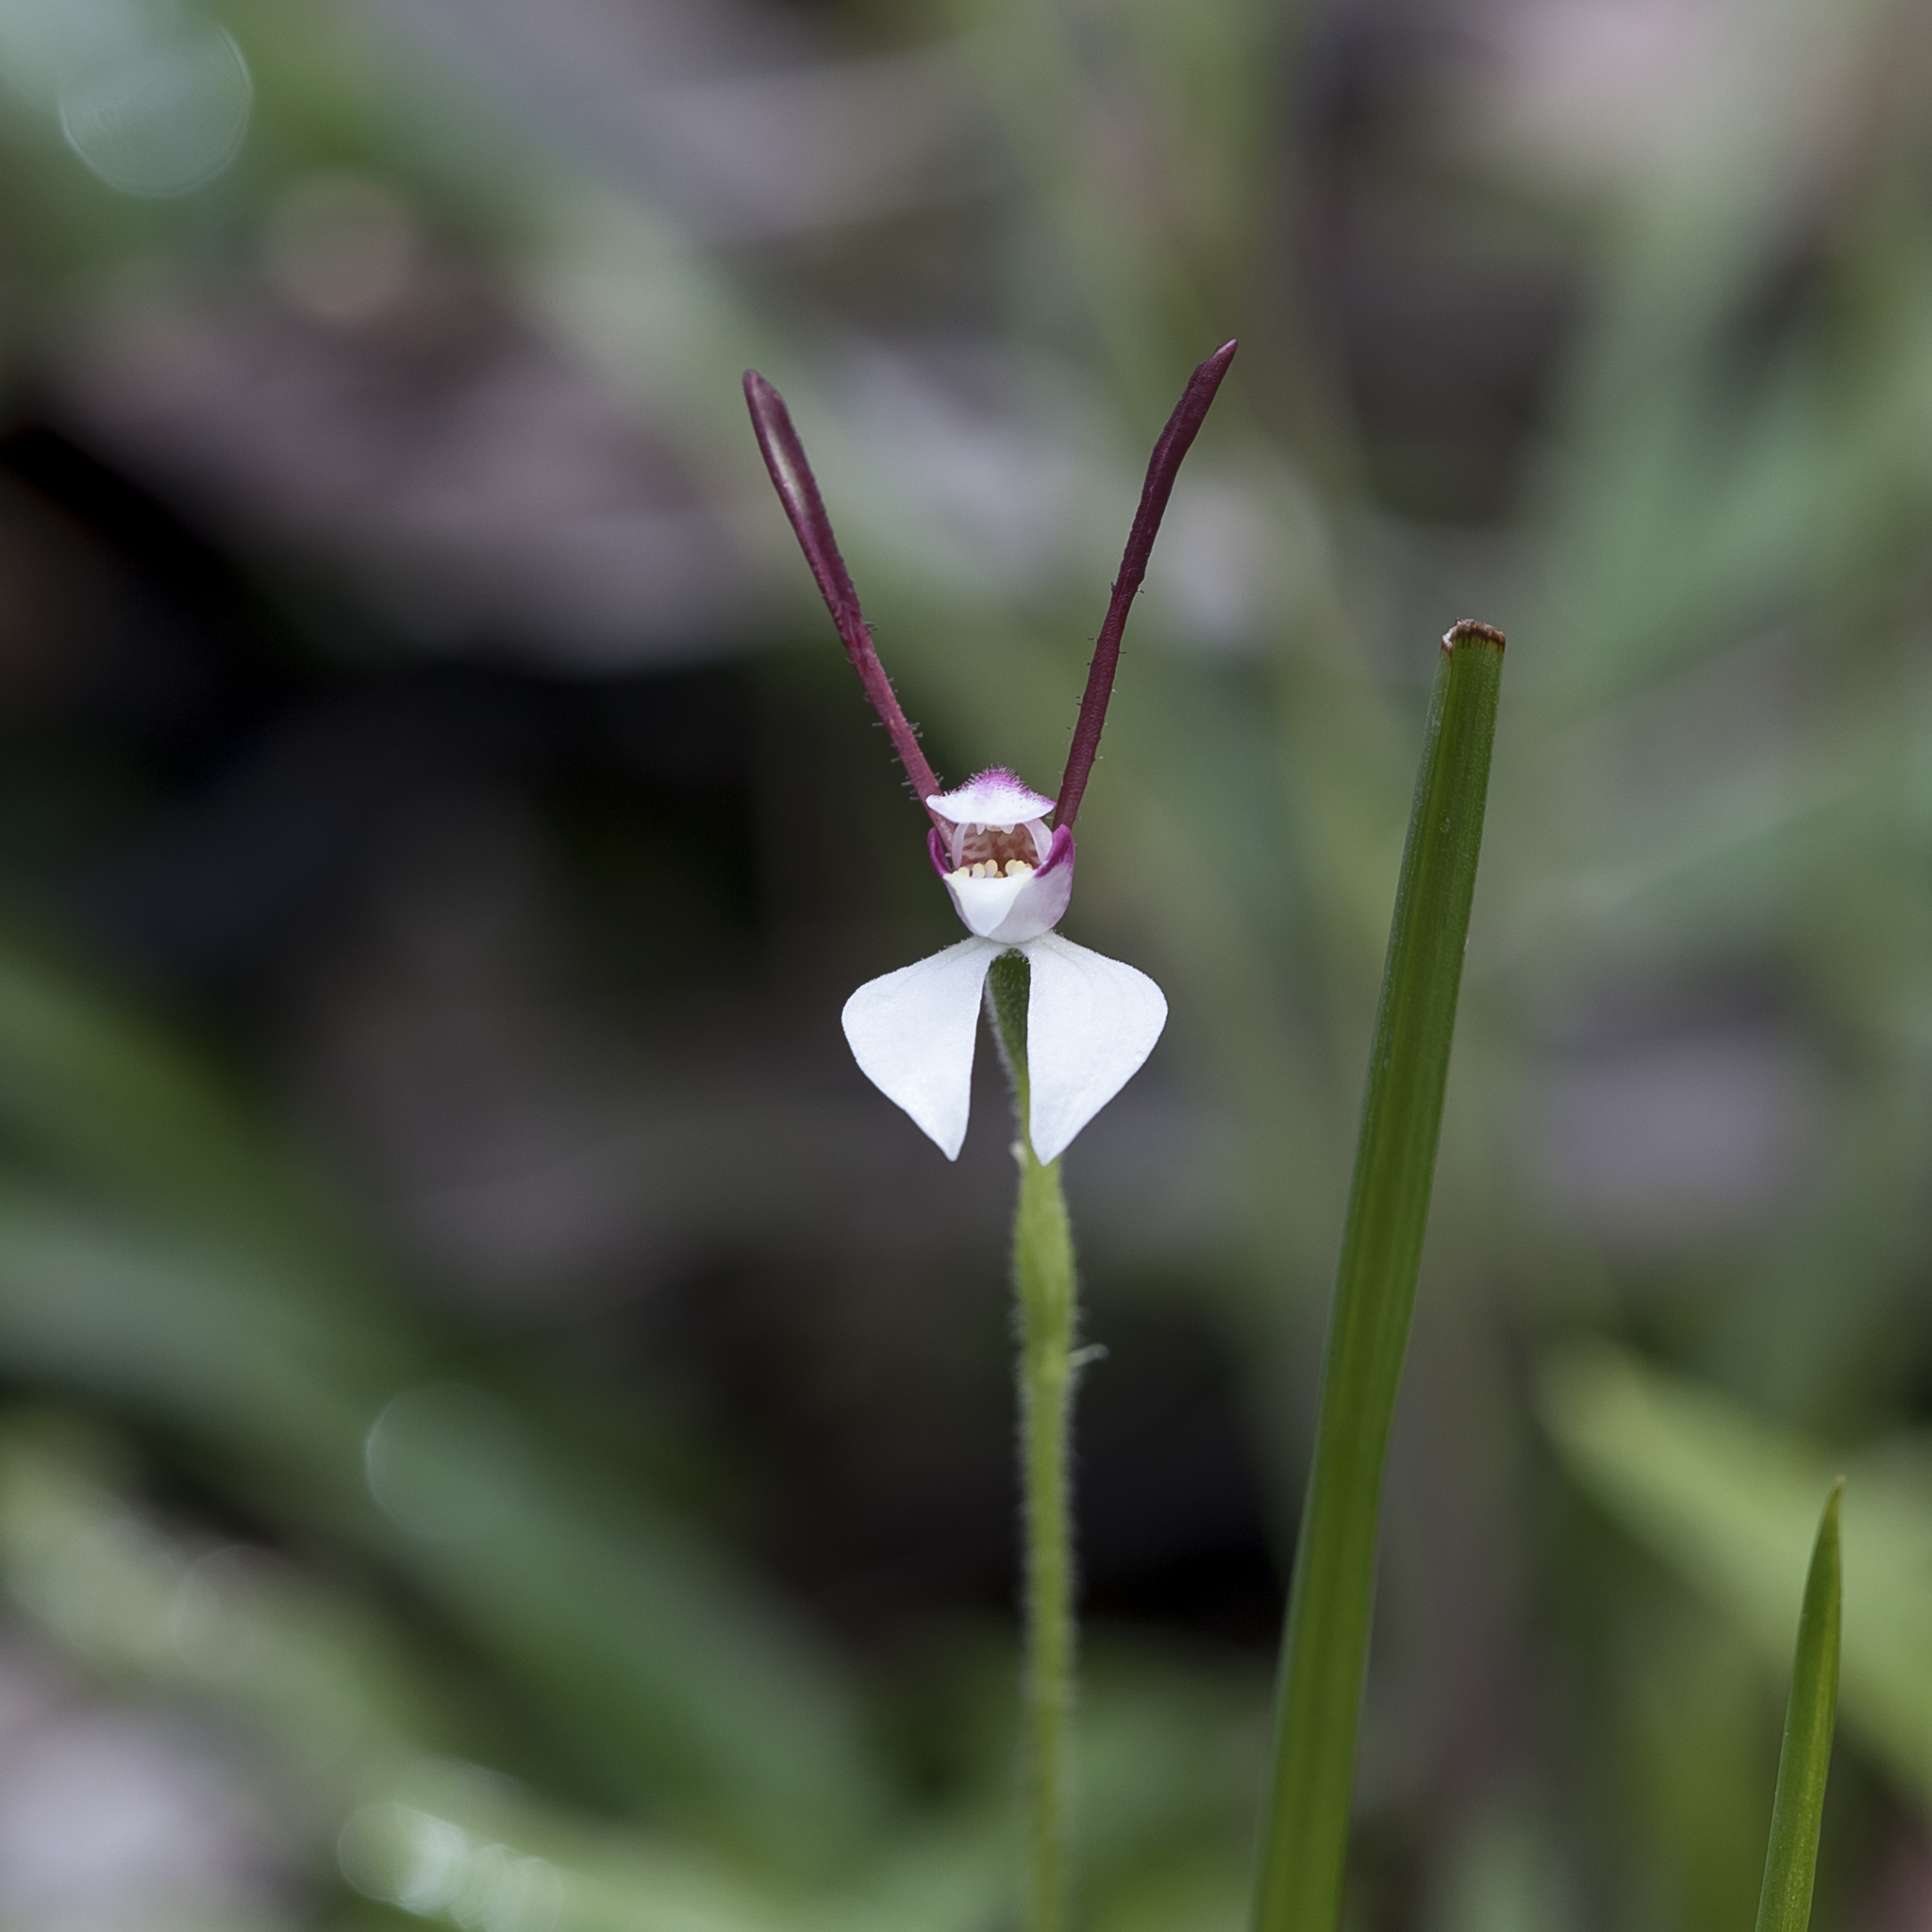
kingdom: Plantae
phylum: Tracheophyta
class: Liliopsida
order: Asparagales
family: Orchidaceae
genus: Leptoceras
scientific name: Leptoceras menziesii
